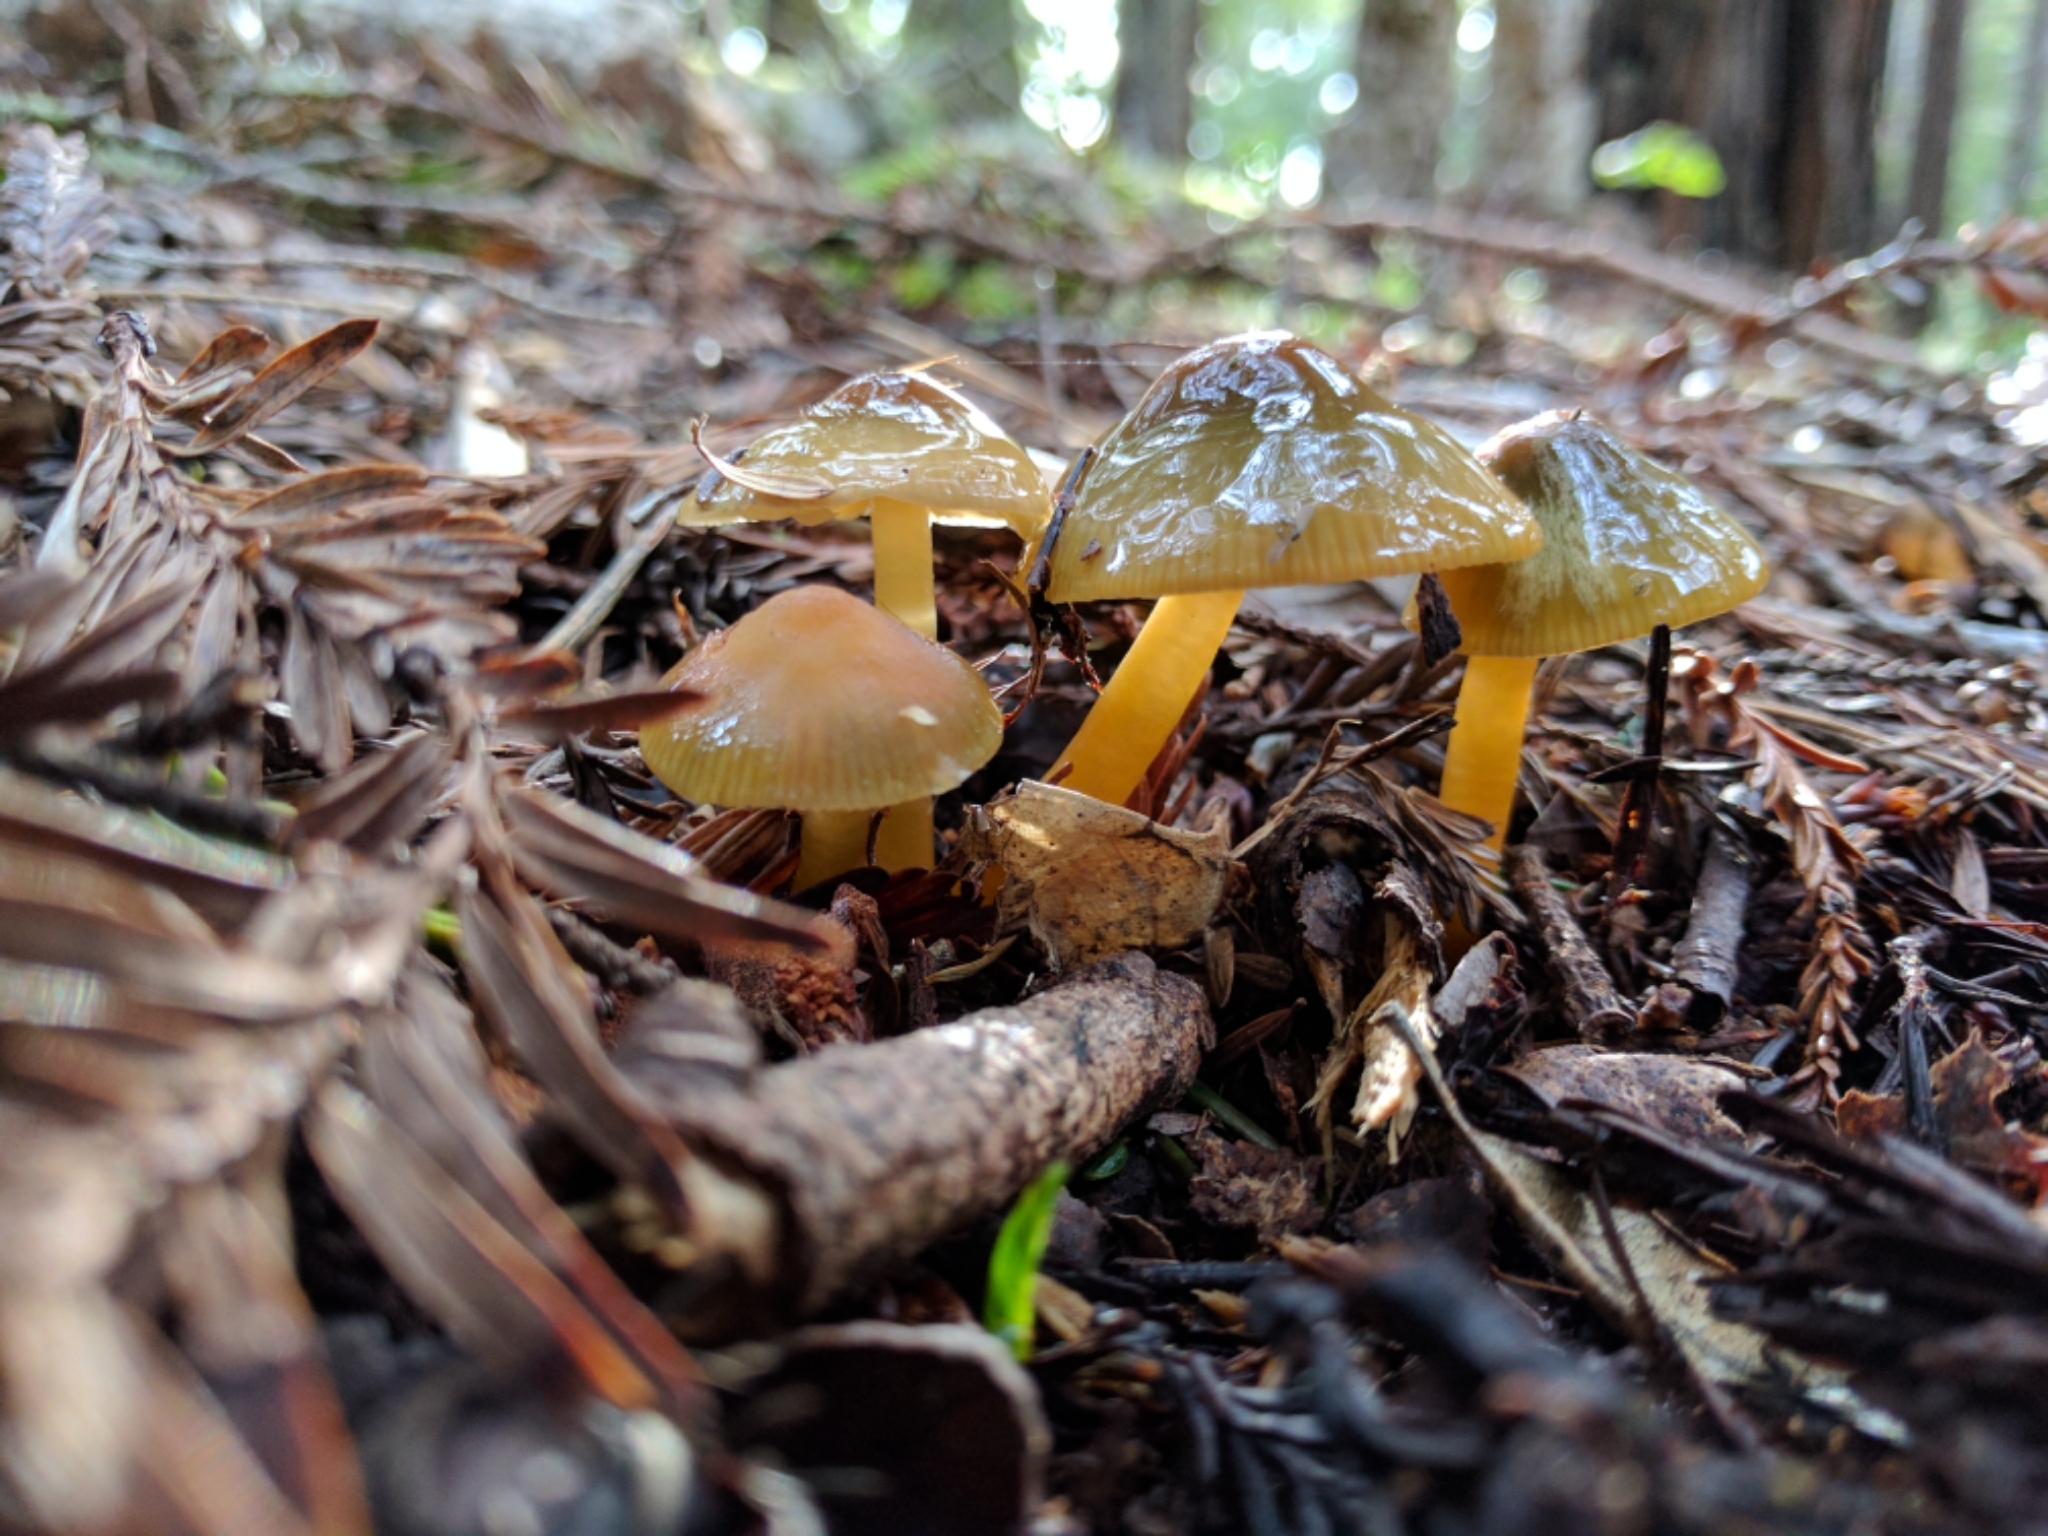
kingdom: Fungi
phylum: Basidiomycota
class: Agaricomycetes
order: Agaricales
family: Hygrophoraceae
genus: Gliophorus
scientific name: Gliophorus psittacinus
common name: Parrot wax-cap
